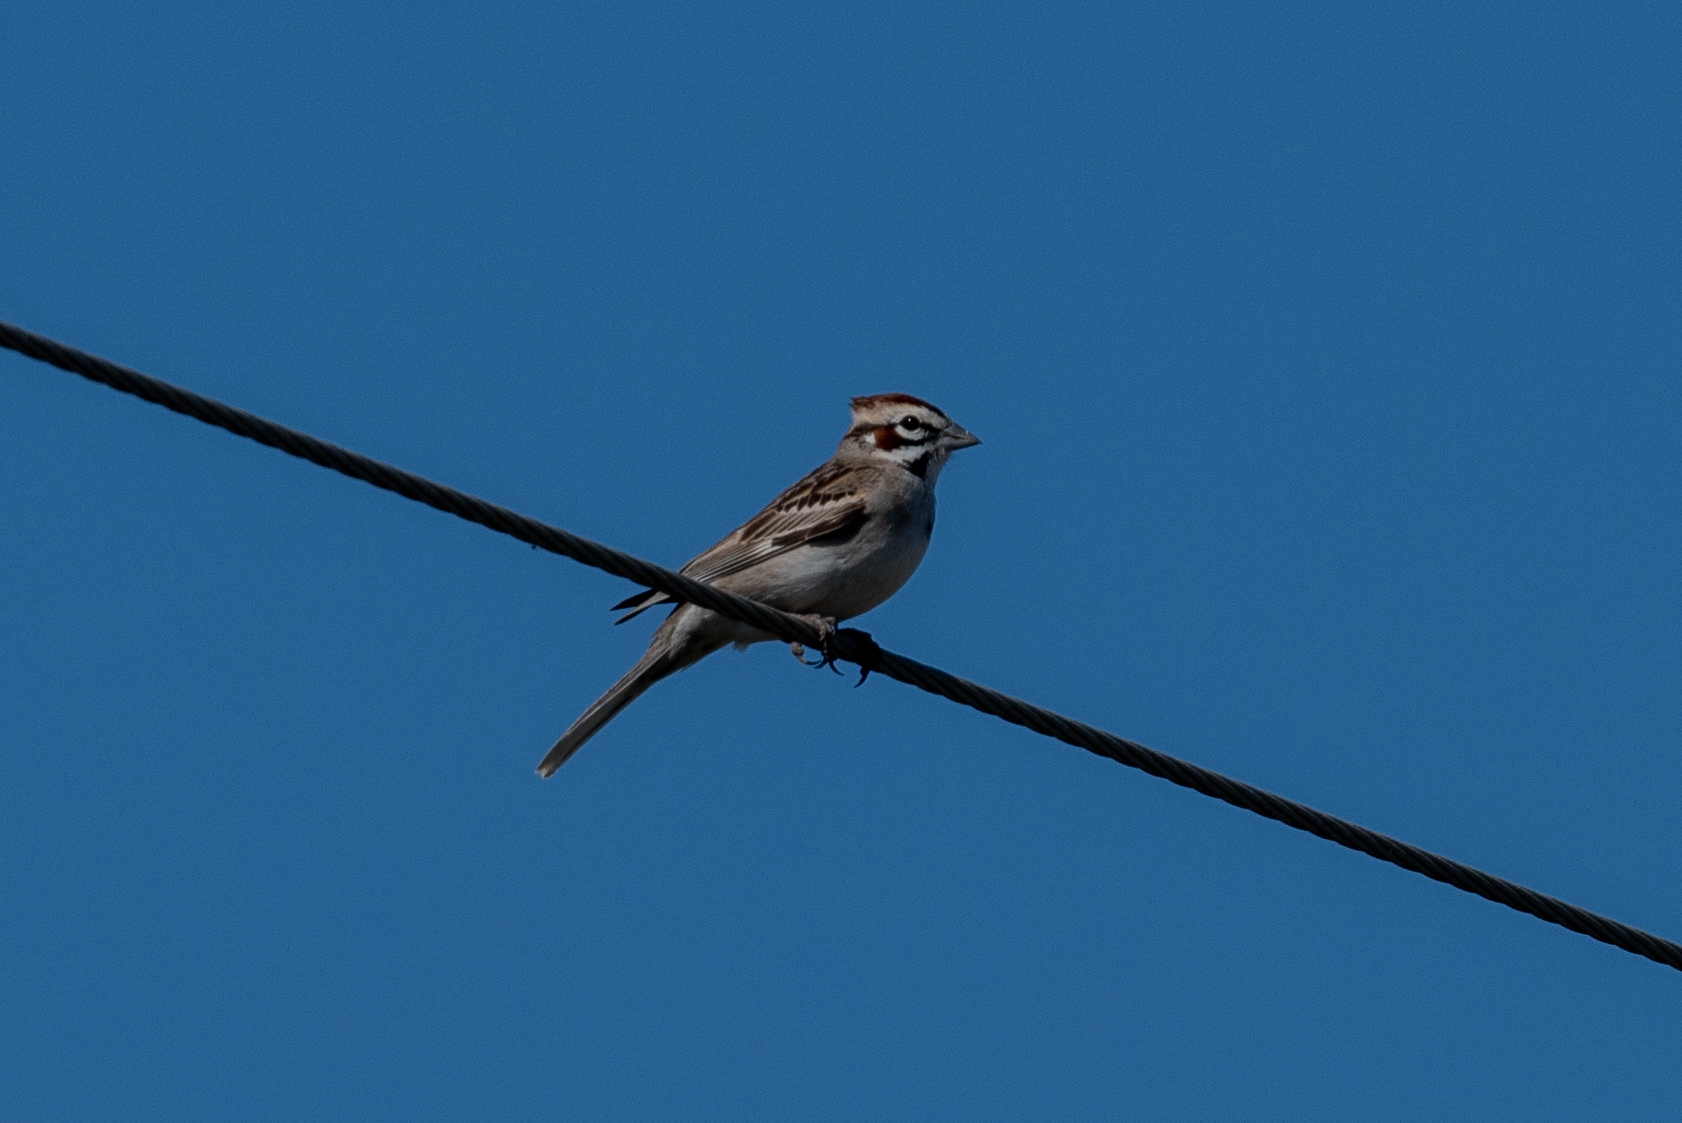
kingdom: Animalia
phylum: Chordata
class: Aves
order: Passeriformes
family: Passerellidae
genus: Chondestes
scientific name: Chondestes grammacus
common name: Lark sparrow
